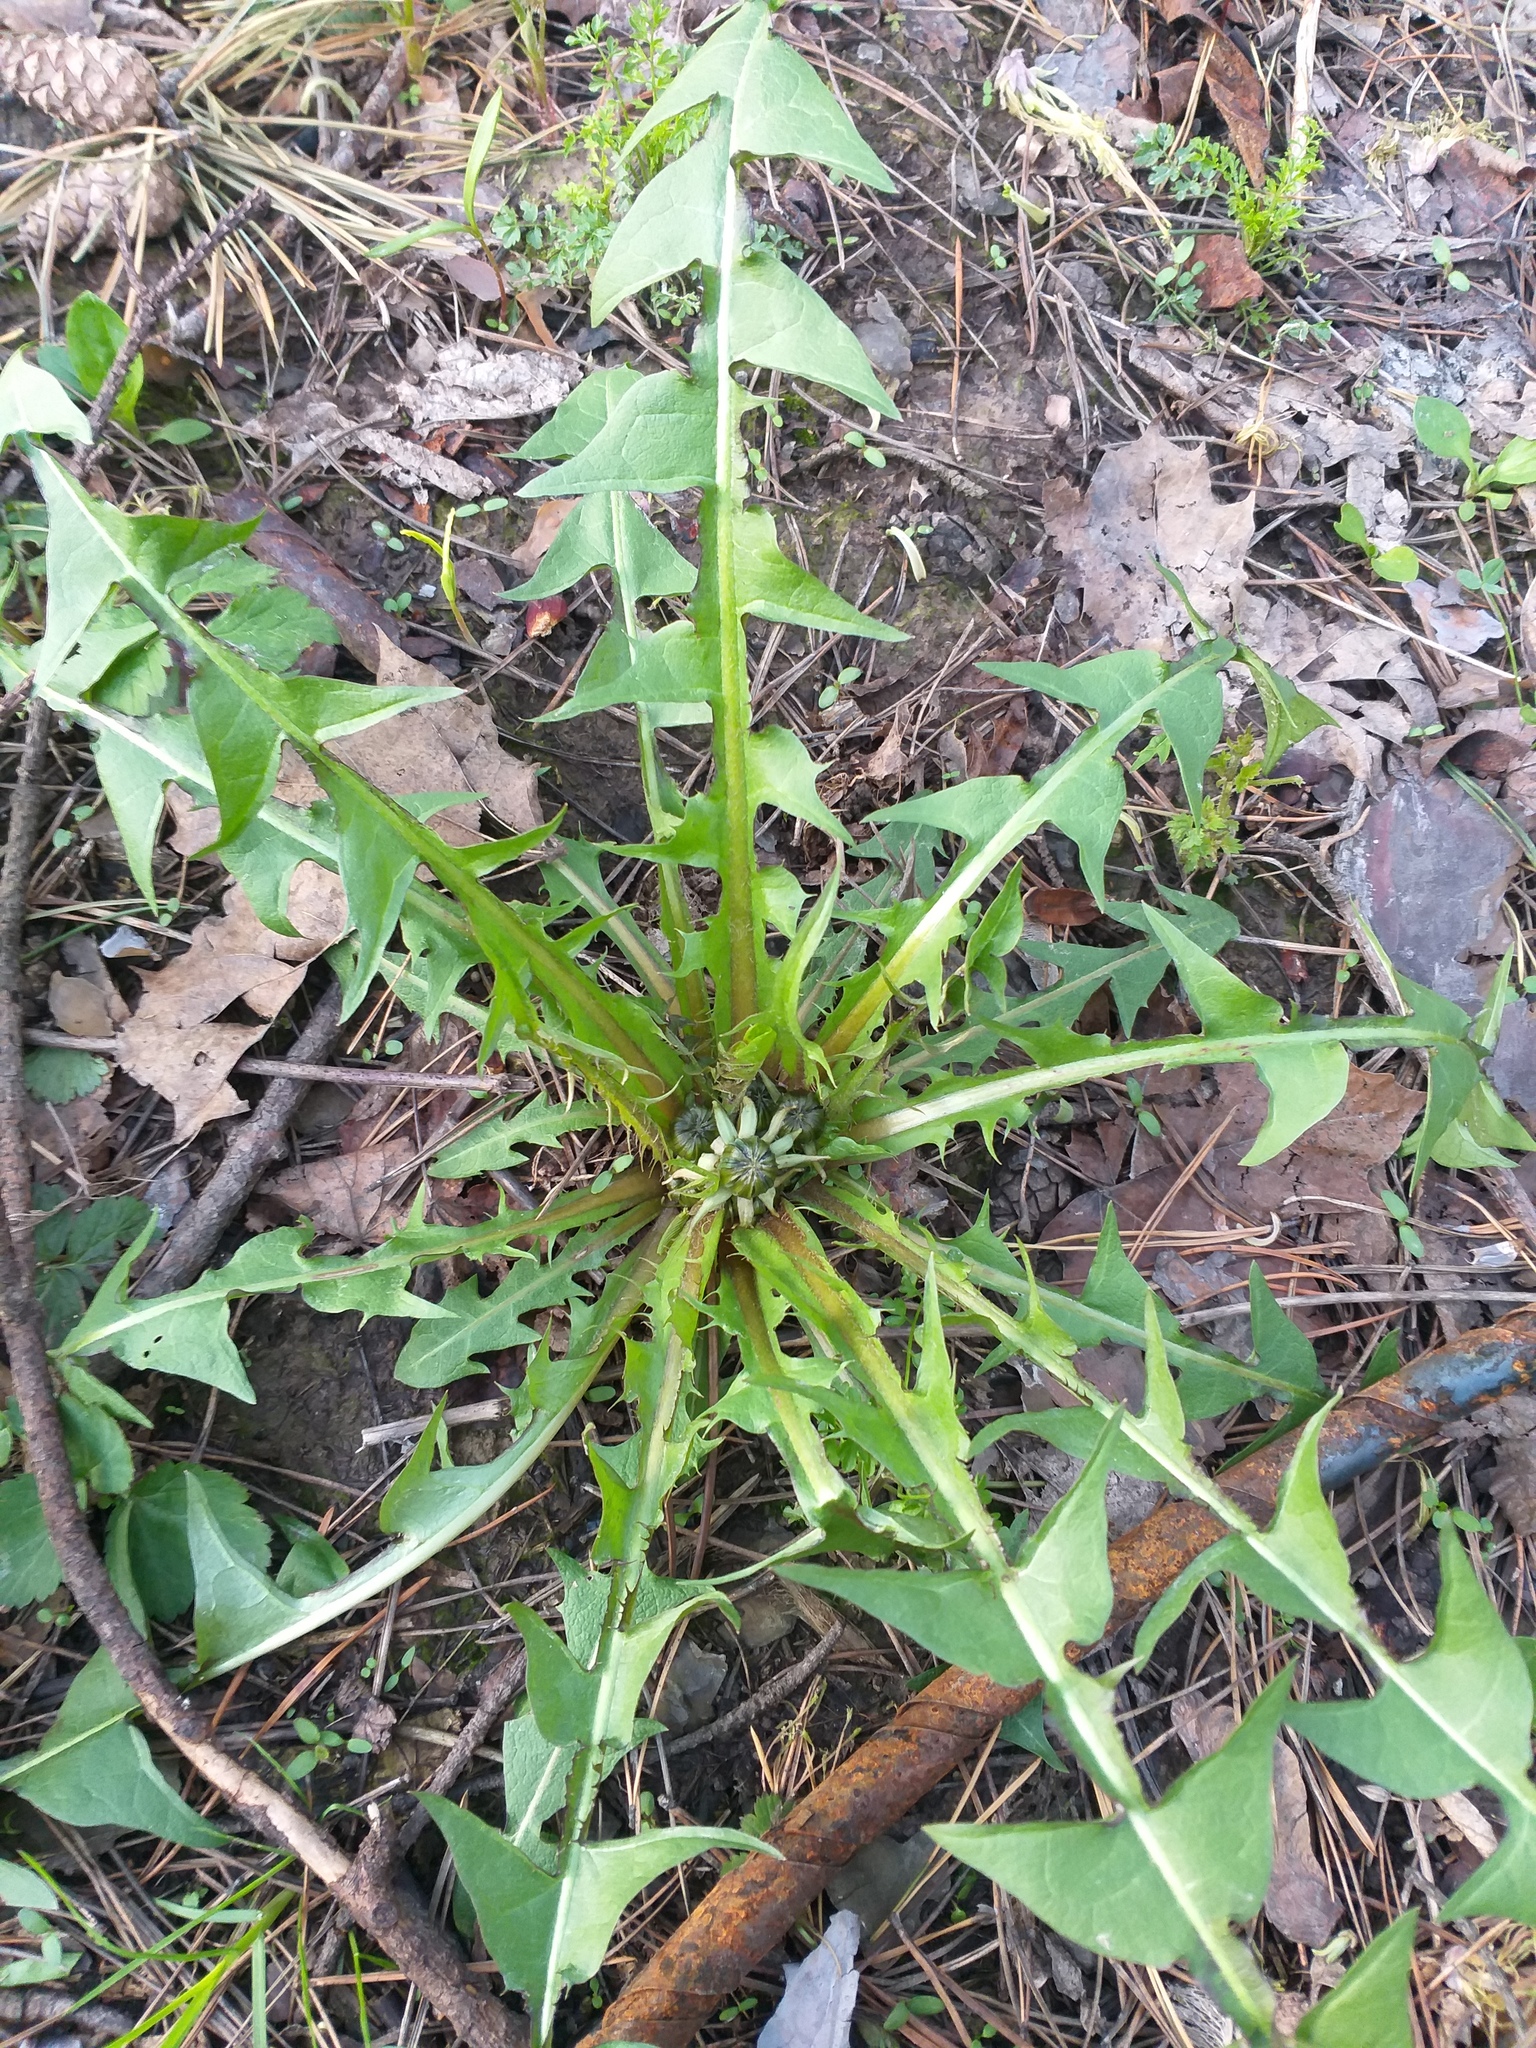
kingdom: Plantae
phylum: Tracheophyta
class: Magnoliopsida
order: Asterales
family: Asteraceae
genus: Taraxacum
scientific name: Taraxacum officinale
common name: Common dandelion
